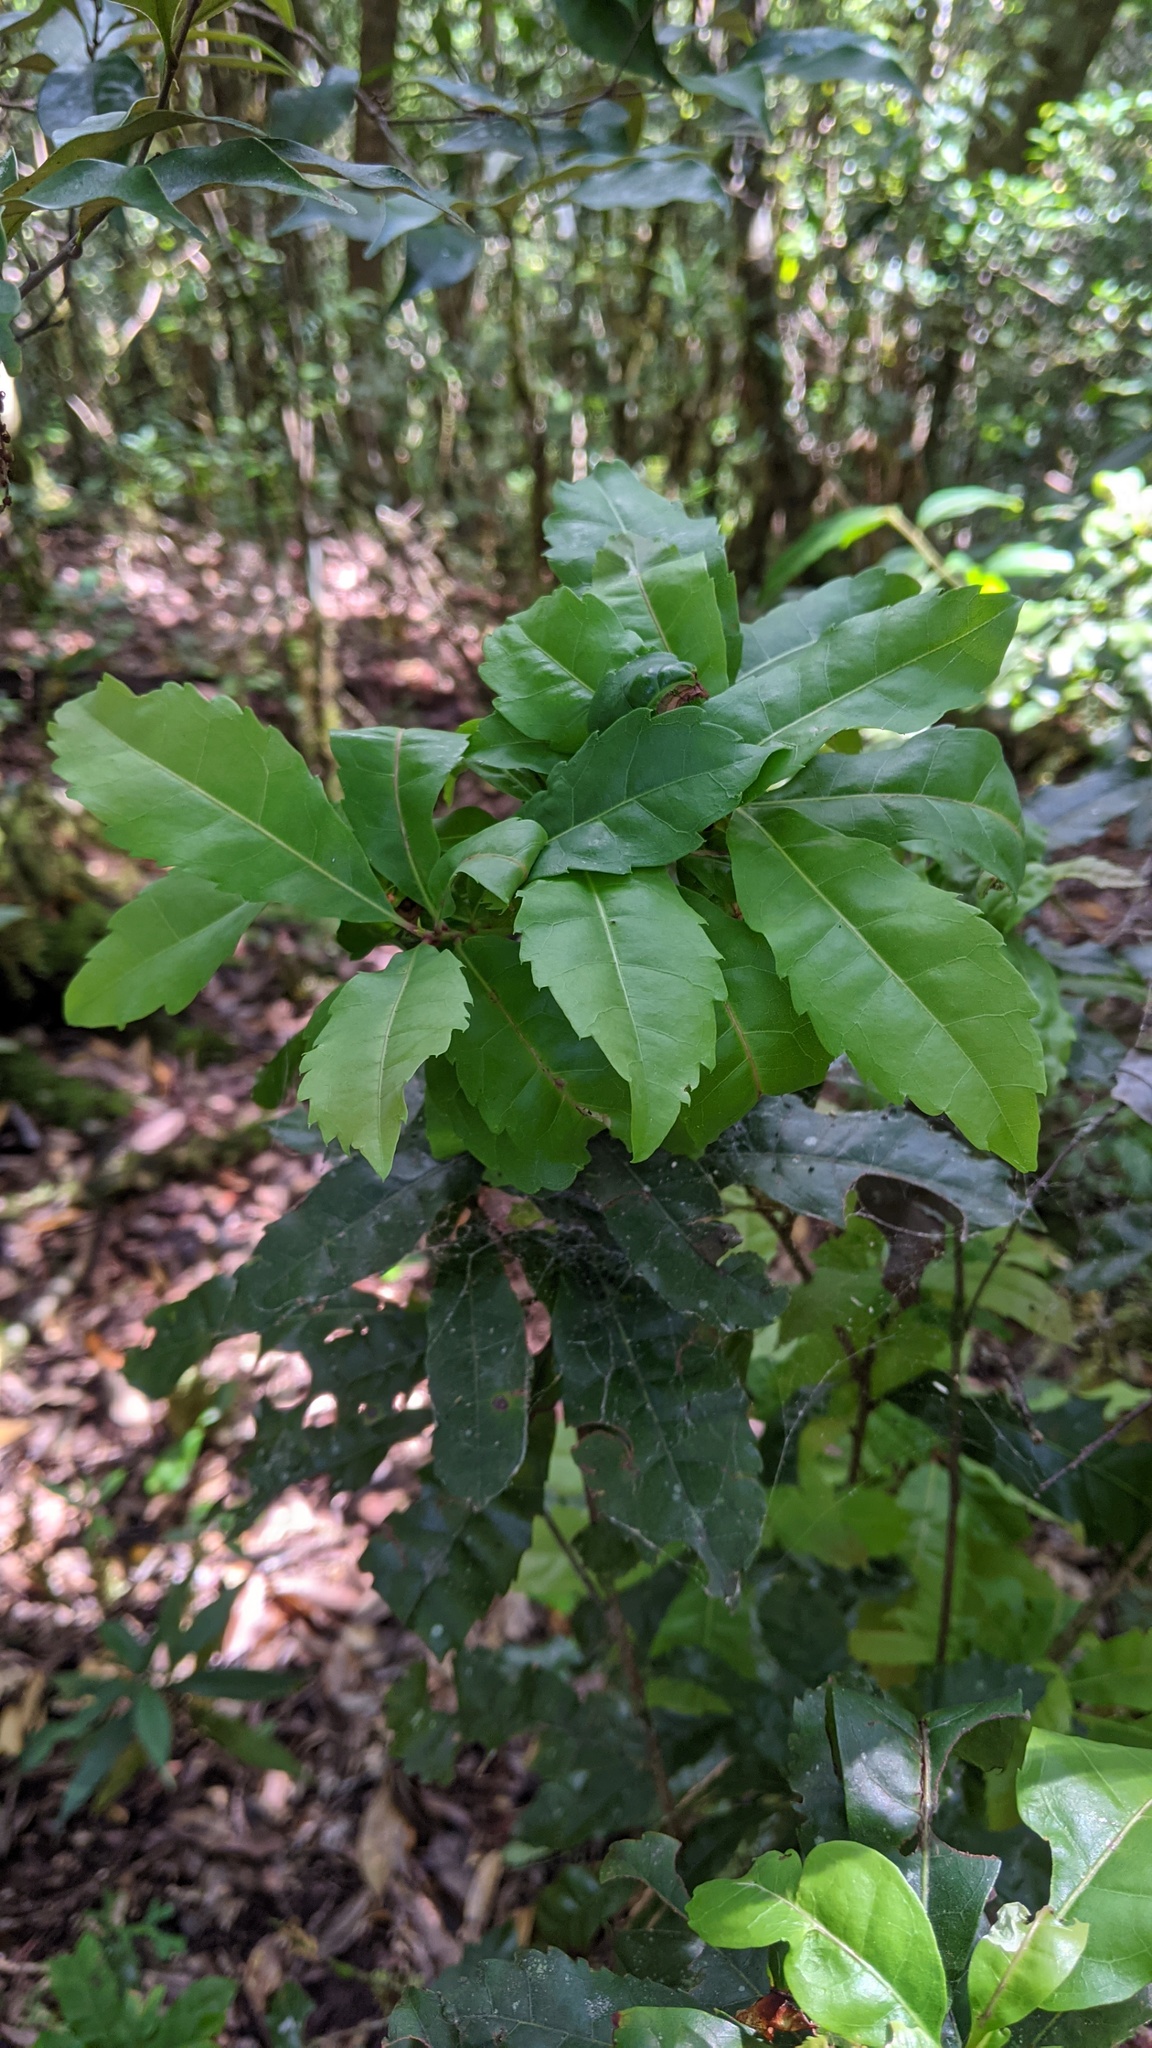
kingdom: Plantae
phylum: Tracheophyta
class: Magnoliopsida
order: Fagales
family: Myricaceae
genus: Morella
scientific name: Morella rubra
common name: Red bayberry
